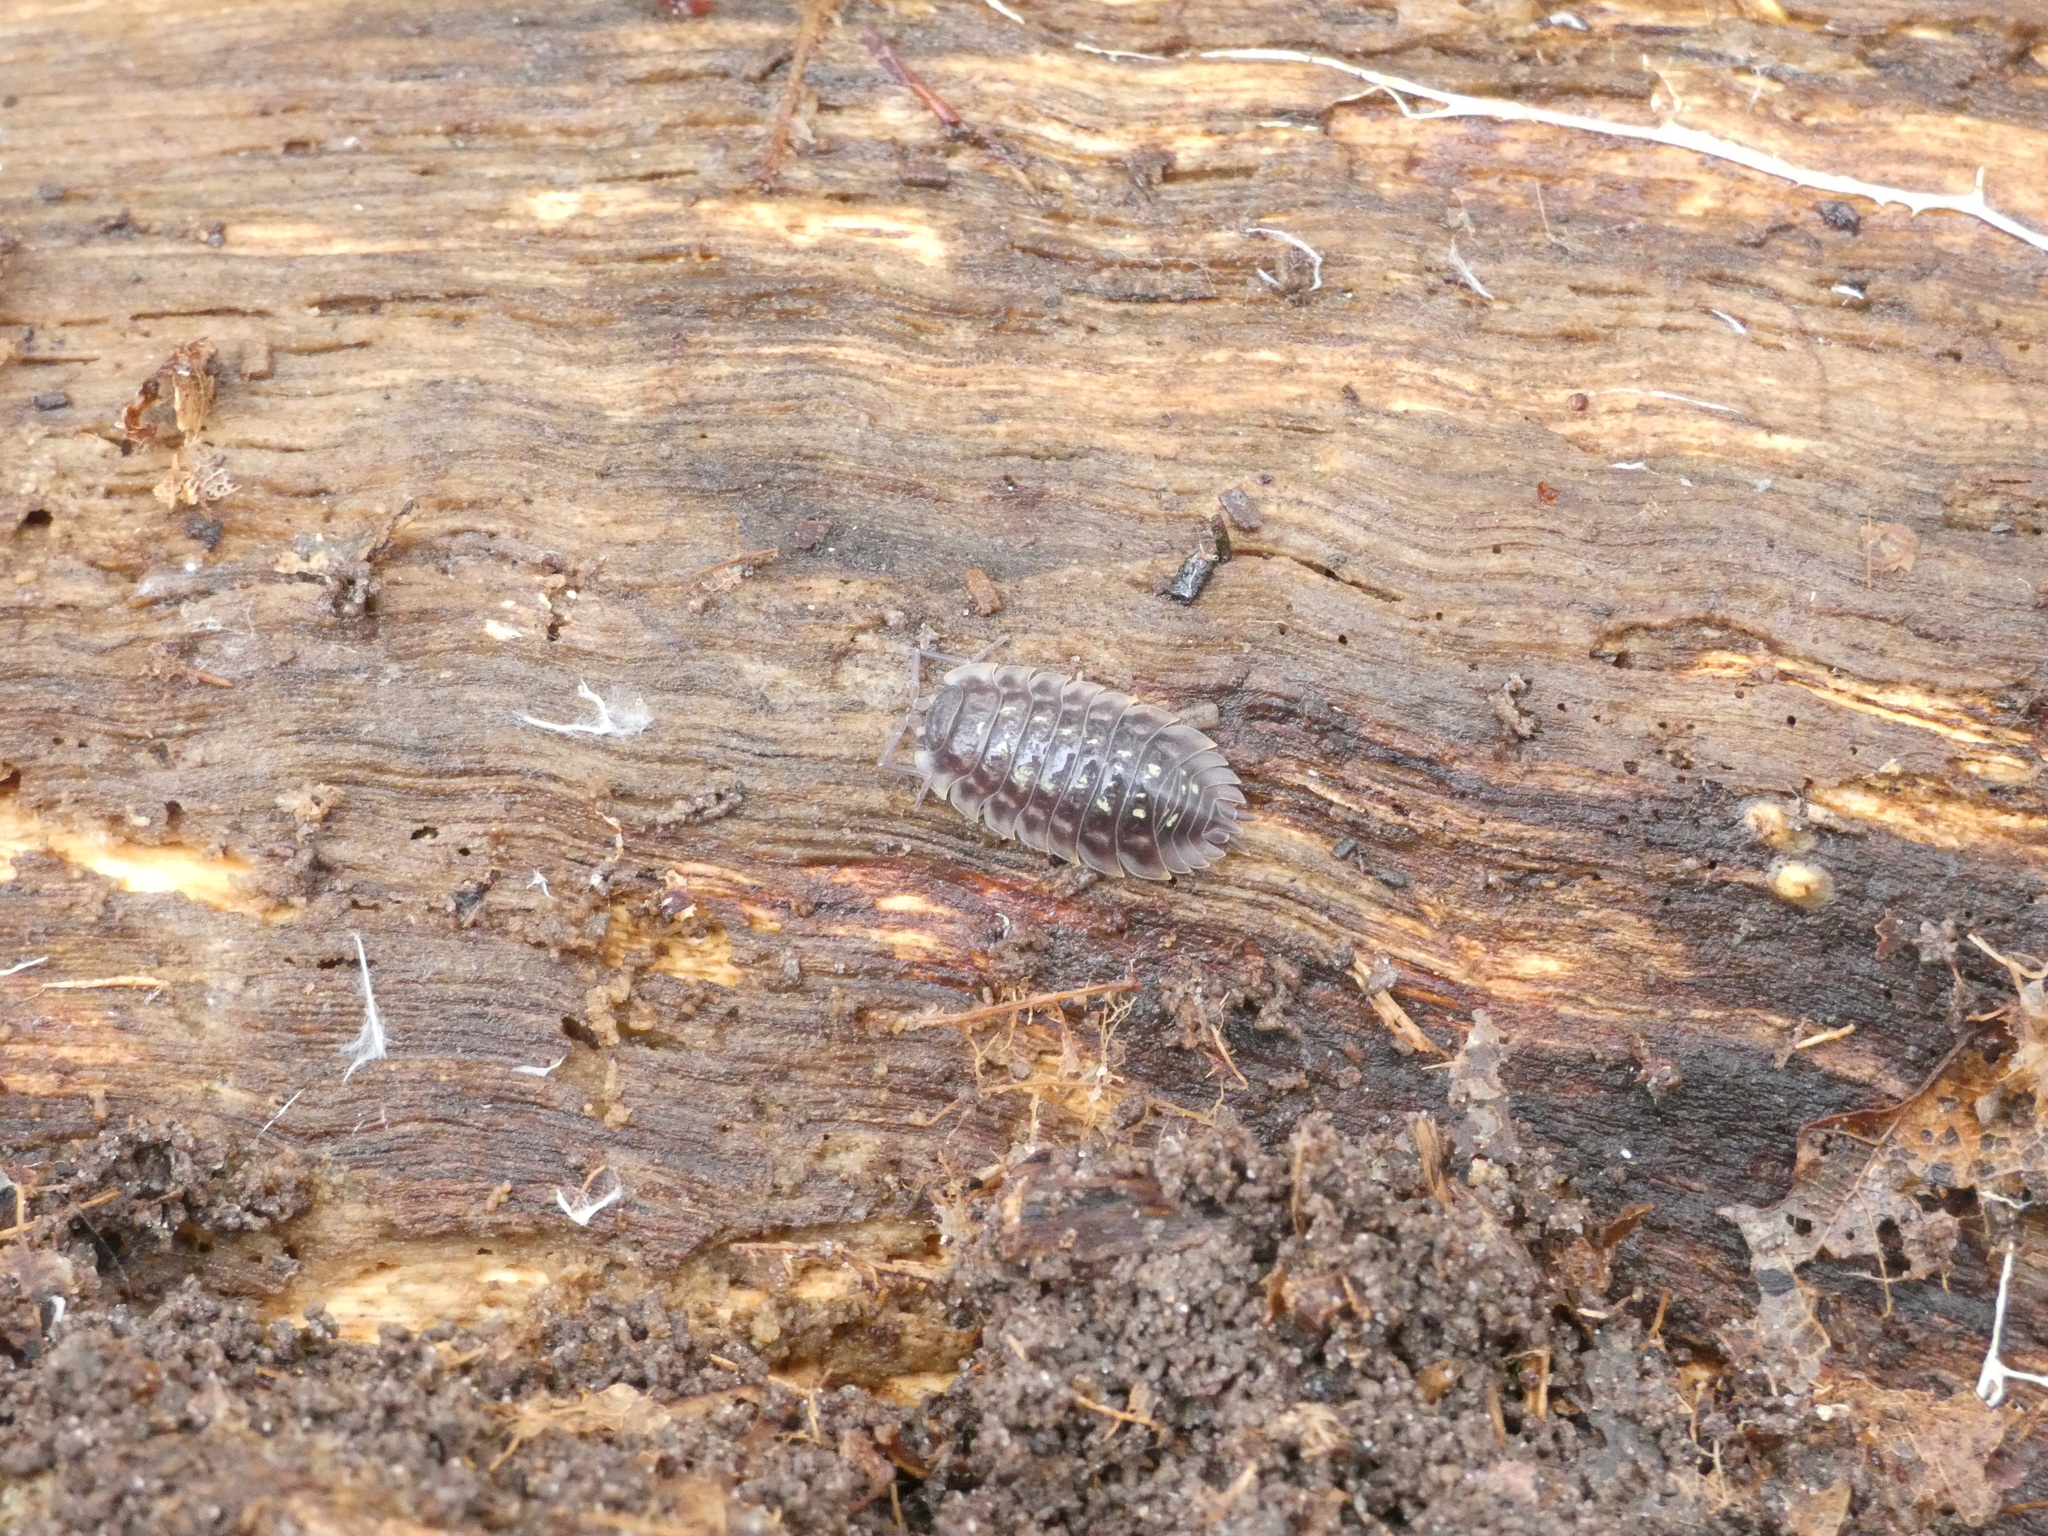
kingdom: Animalia
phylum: Arthropoda
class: Malacostraca
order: Isopoda
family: Oniscidae
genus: Oniscus
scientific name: Oniscus asellus
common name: Common shiny woodlouse
